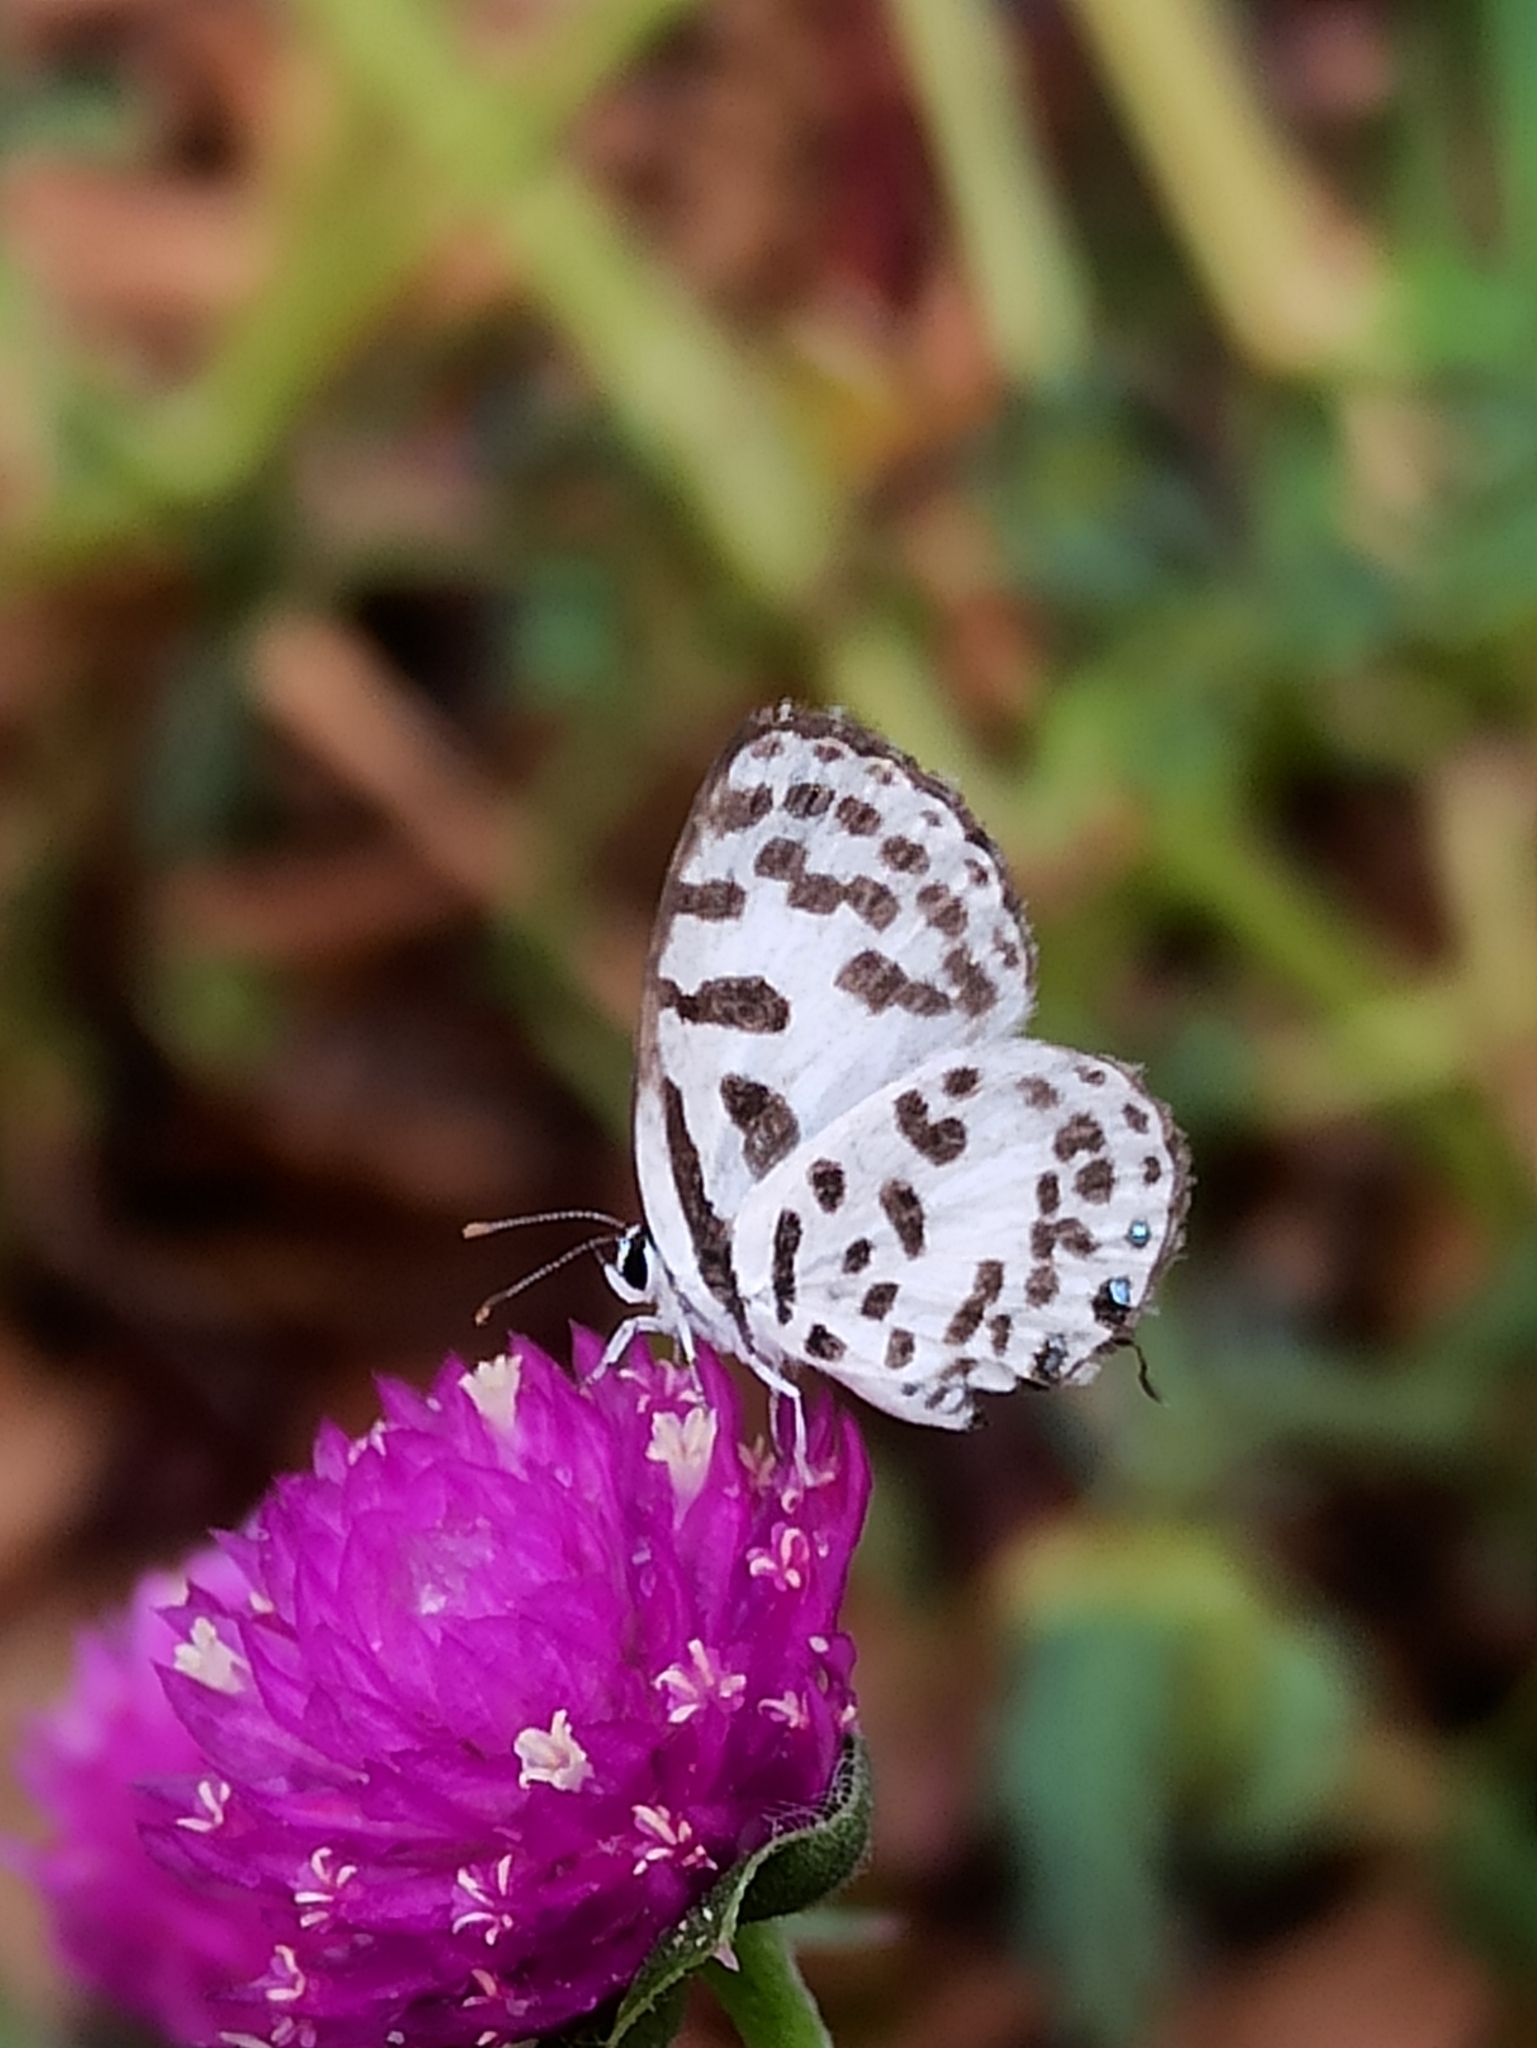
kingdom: Animalia
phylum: Arthropoda
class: Insecta
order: Lepidoptera
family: Lycaenidae
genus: Castalius
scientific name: Castalius rosimon
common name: Common pierrot
